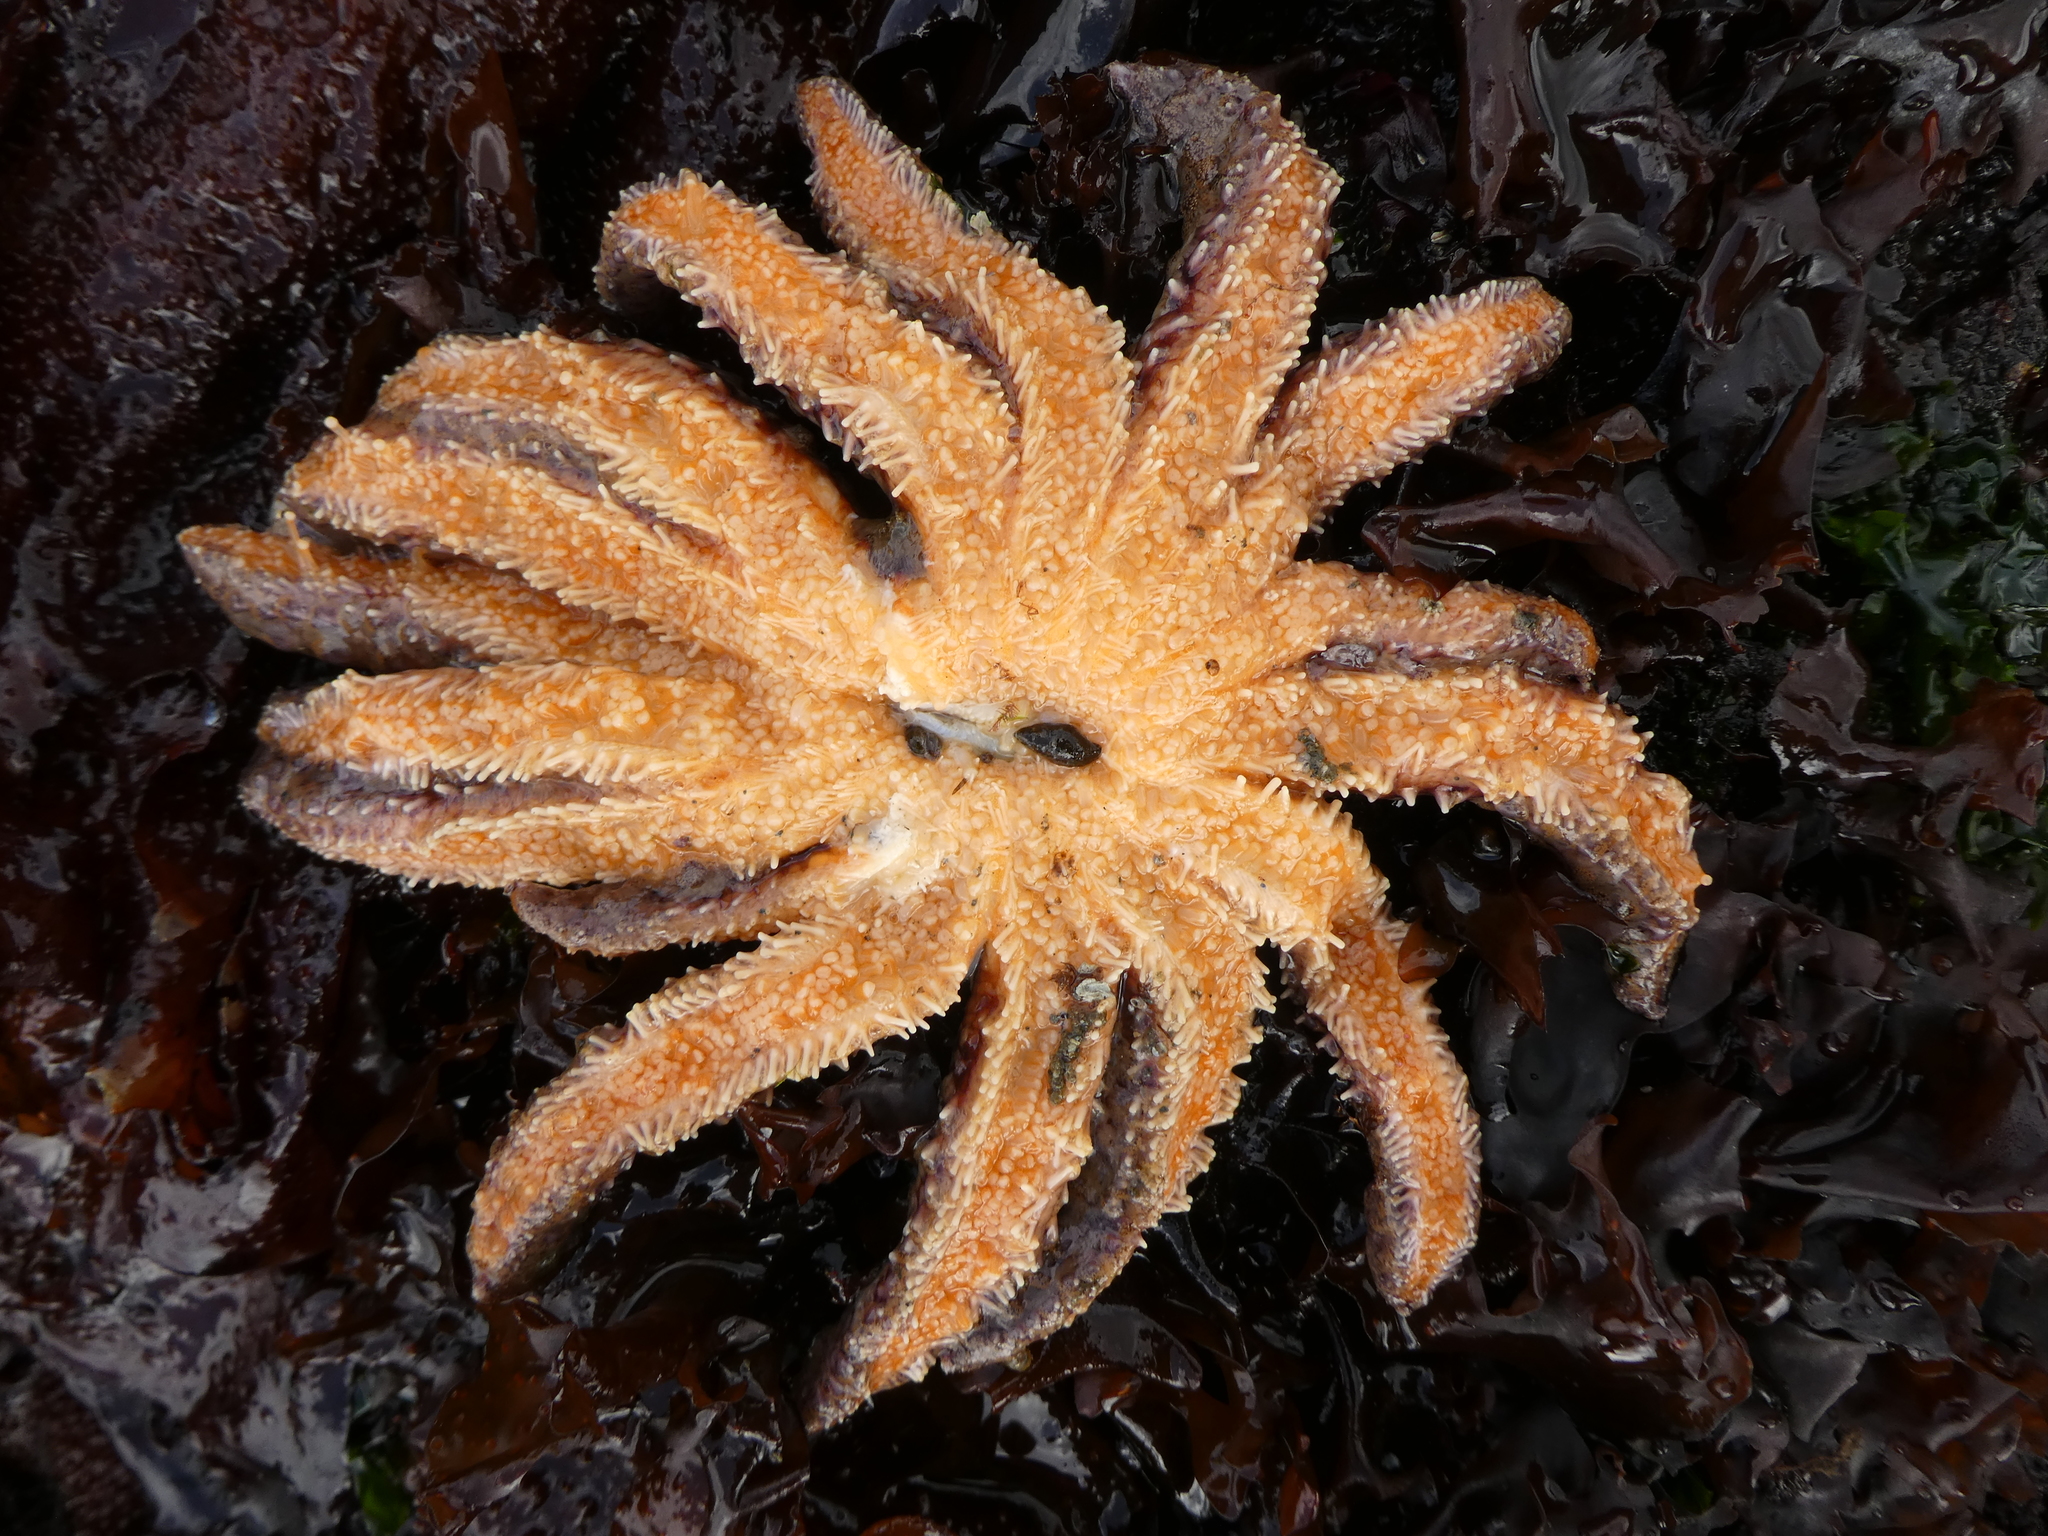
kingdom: Animalia
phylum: Echinodermata
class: Asteroidea
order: Forcipulatida
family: Asteriidae
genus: Pycnopodia
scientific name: Pycnopodia helianthoides
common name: Rag mop
